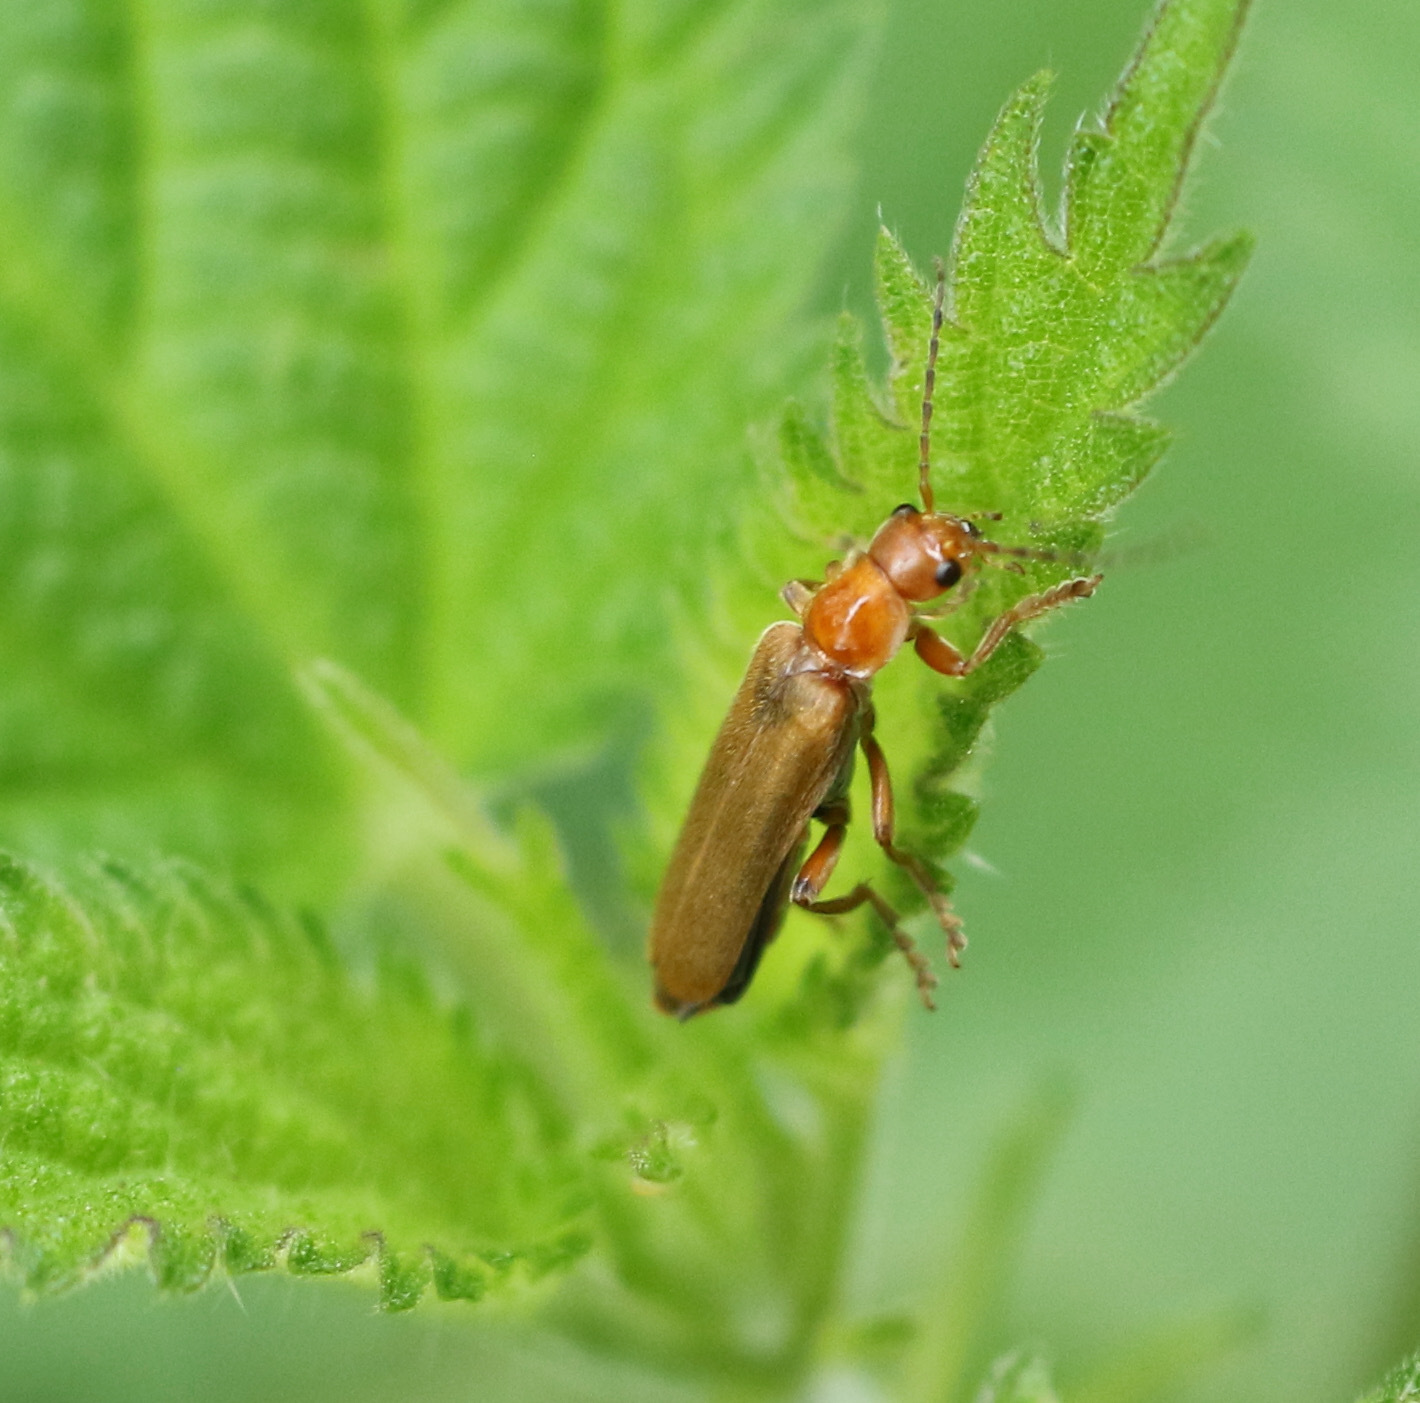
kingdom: Animalia
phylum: Arthropoda
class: Insecta
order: Coleoptera
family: Cantharidae
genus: Cantharis
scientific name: Cantharis pallida
